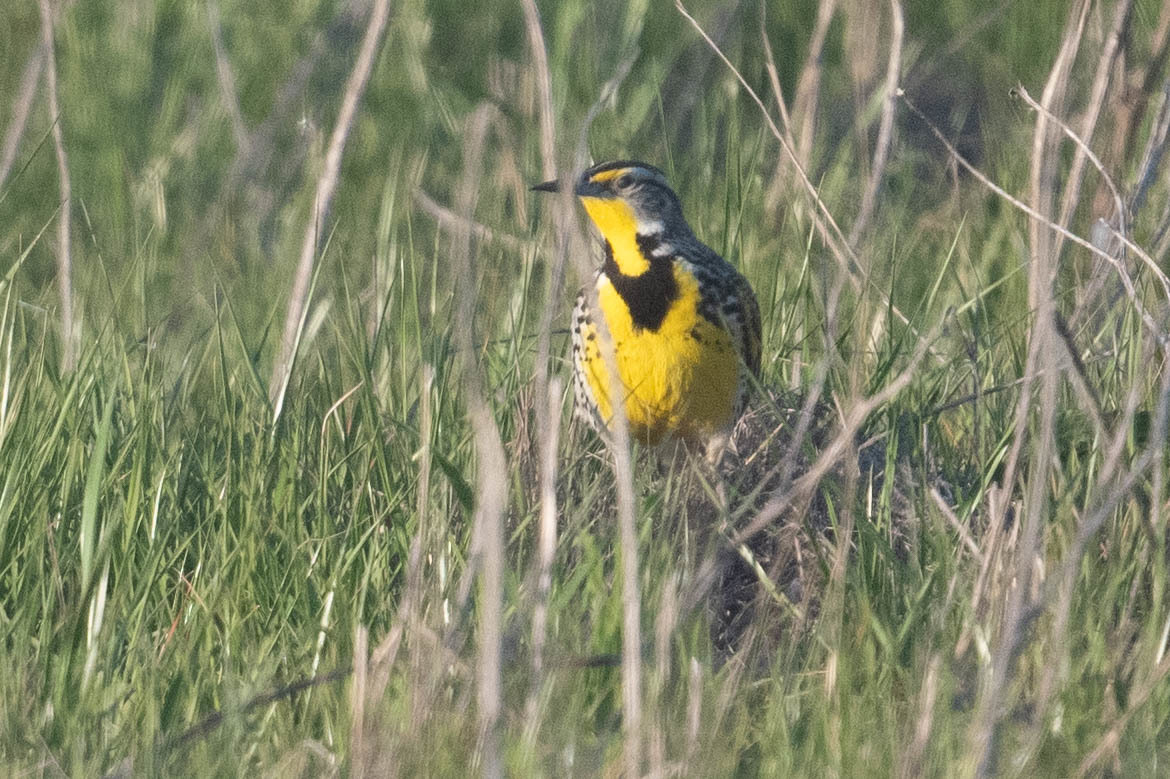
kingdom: Animalia
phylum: Chordata
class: Aves
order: Passeriformes
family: Icteridae
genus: Sturnella
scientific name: Sturnella neglecta
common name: Western meadowlark
